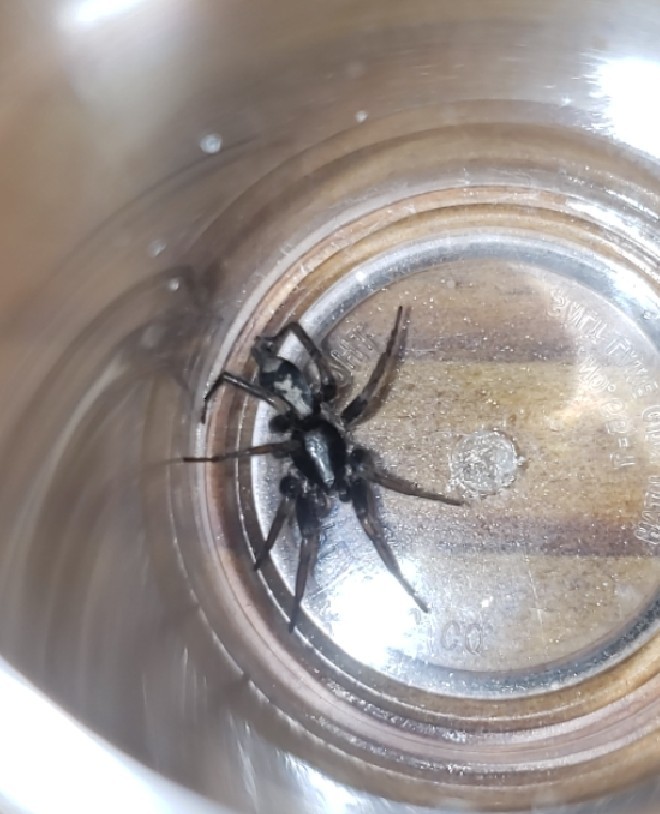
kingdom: Animalia
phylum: Arthropoda
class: Arachnida
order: Araneae
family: Gnaphosidae
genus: Herpyllus
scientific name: Herpyllus ecclesiasticus
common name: Eastern parson spider
